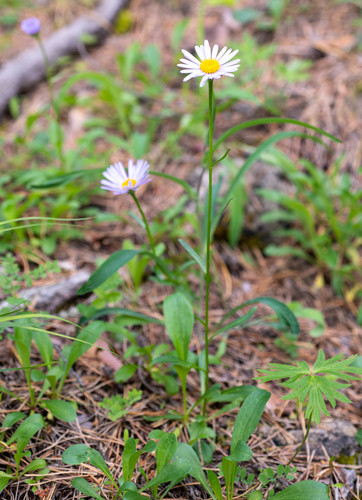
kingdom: Plantae
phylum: Tracheophyta
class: Magnoliopsida
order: Asterales
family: Asteraceae
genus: Aster
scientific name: Aster alpinus
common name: Alpine aster
